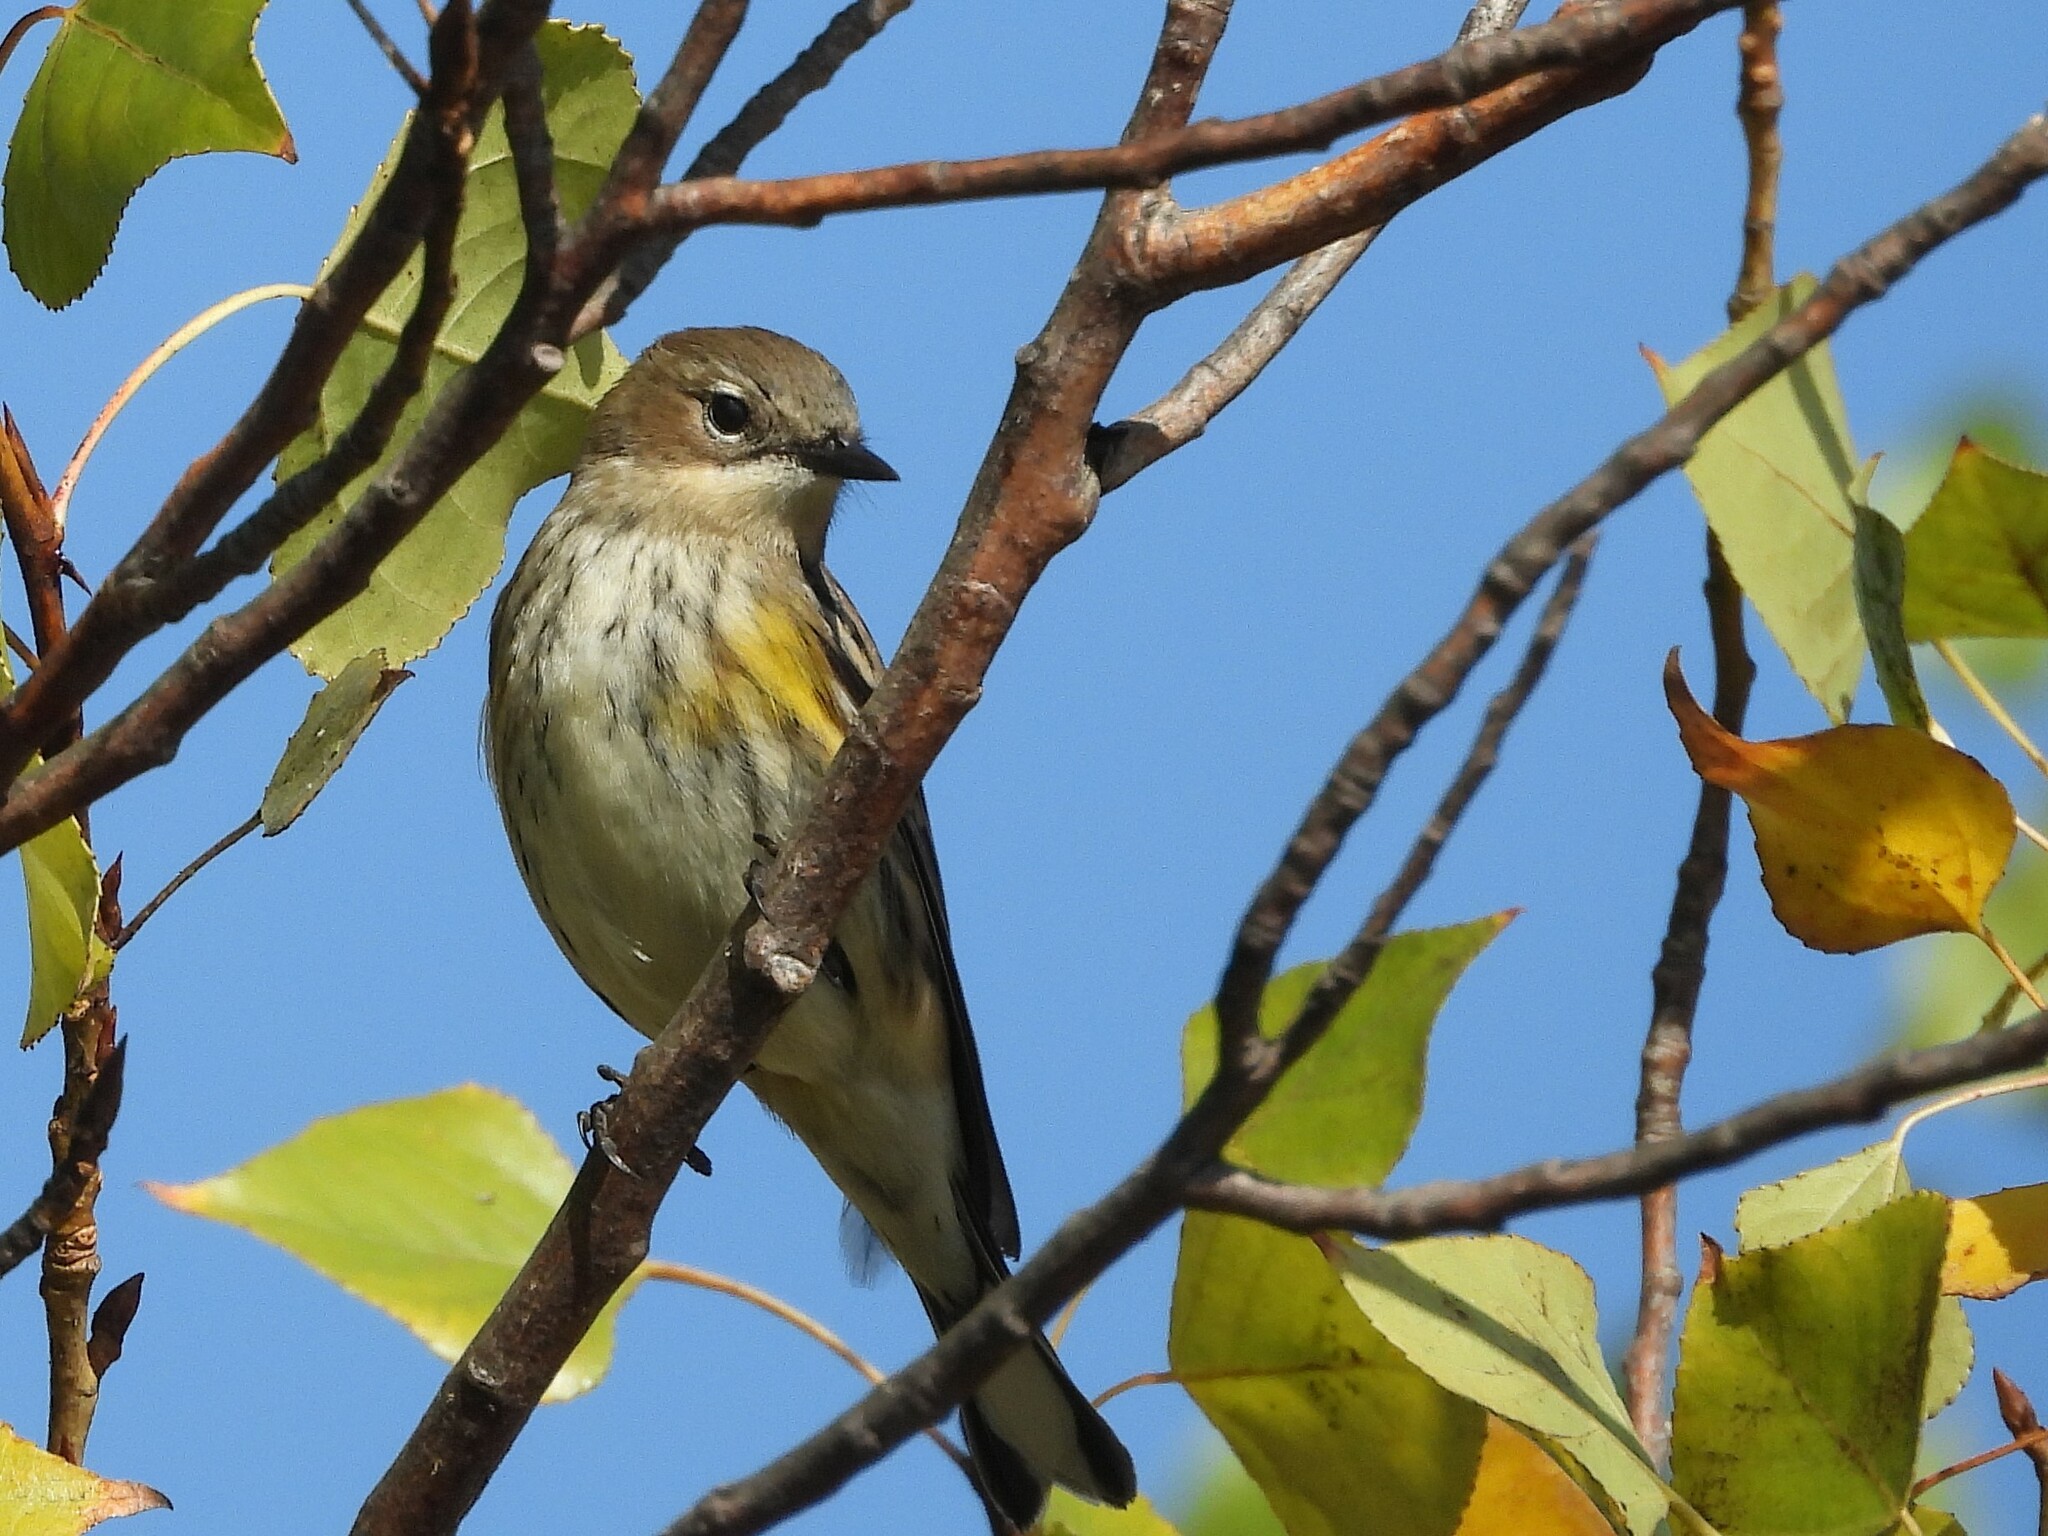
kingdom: Animalia
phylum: Chordata
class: Aves
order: Passeriformes
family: Parulidae
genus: Setophaga
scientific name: Setophaga coronata
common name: Myrtle warbler
